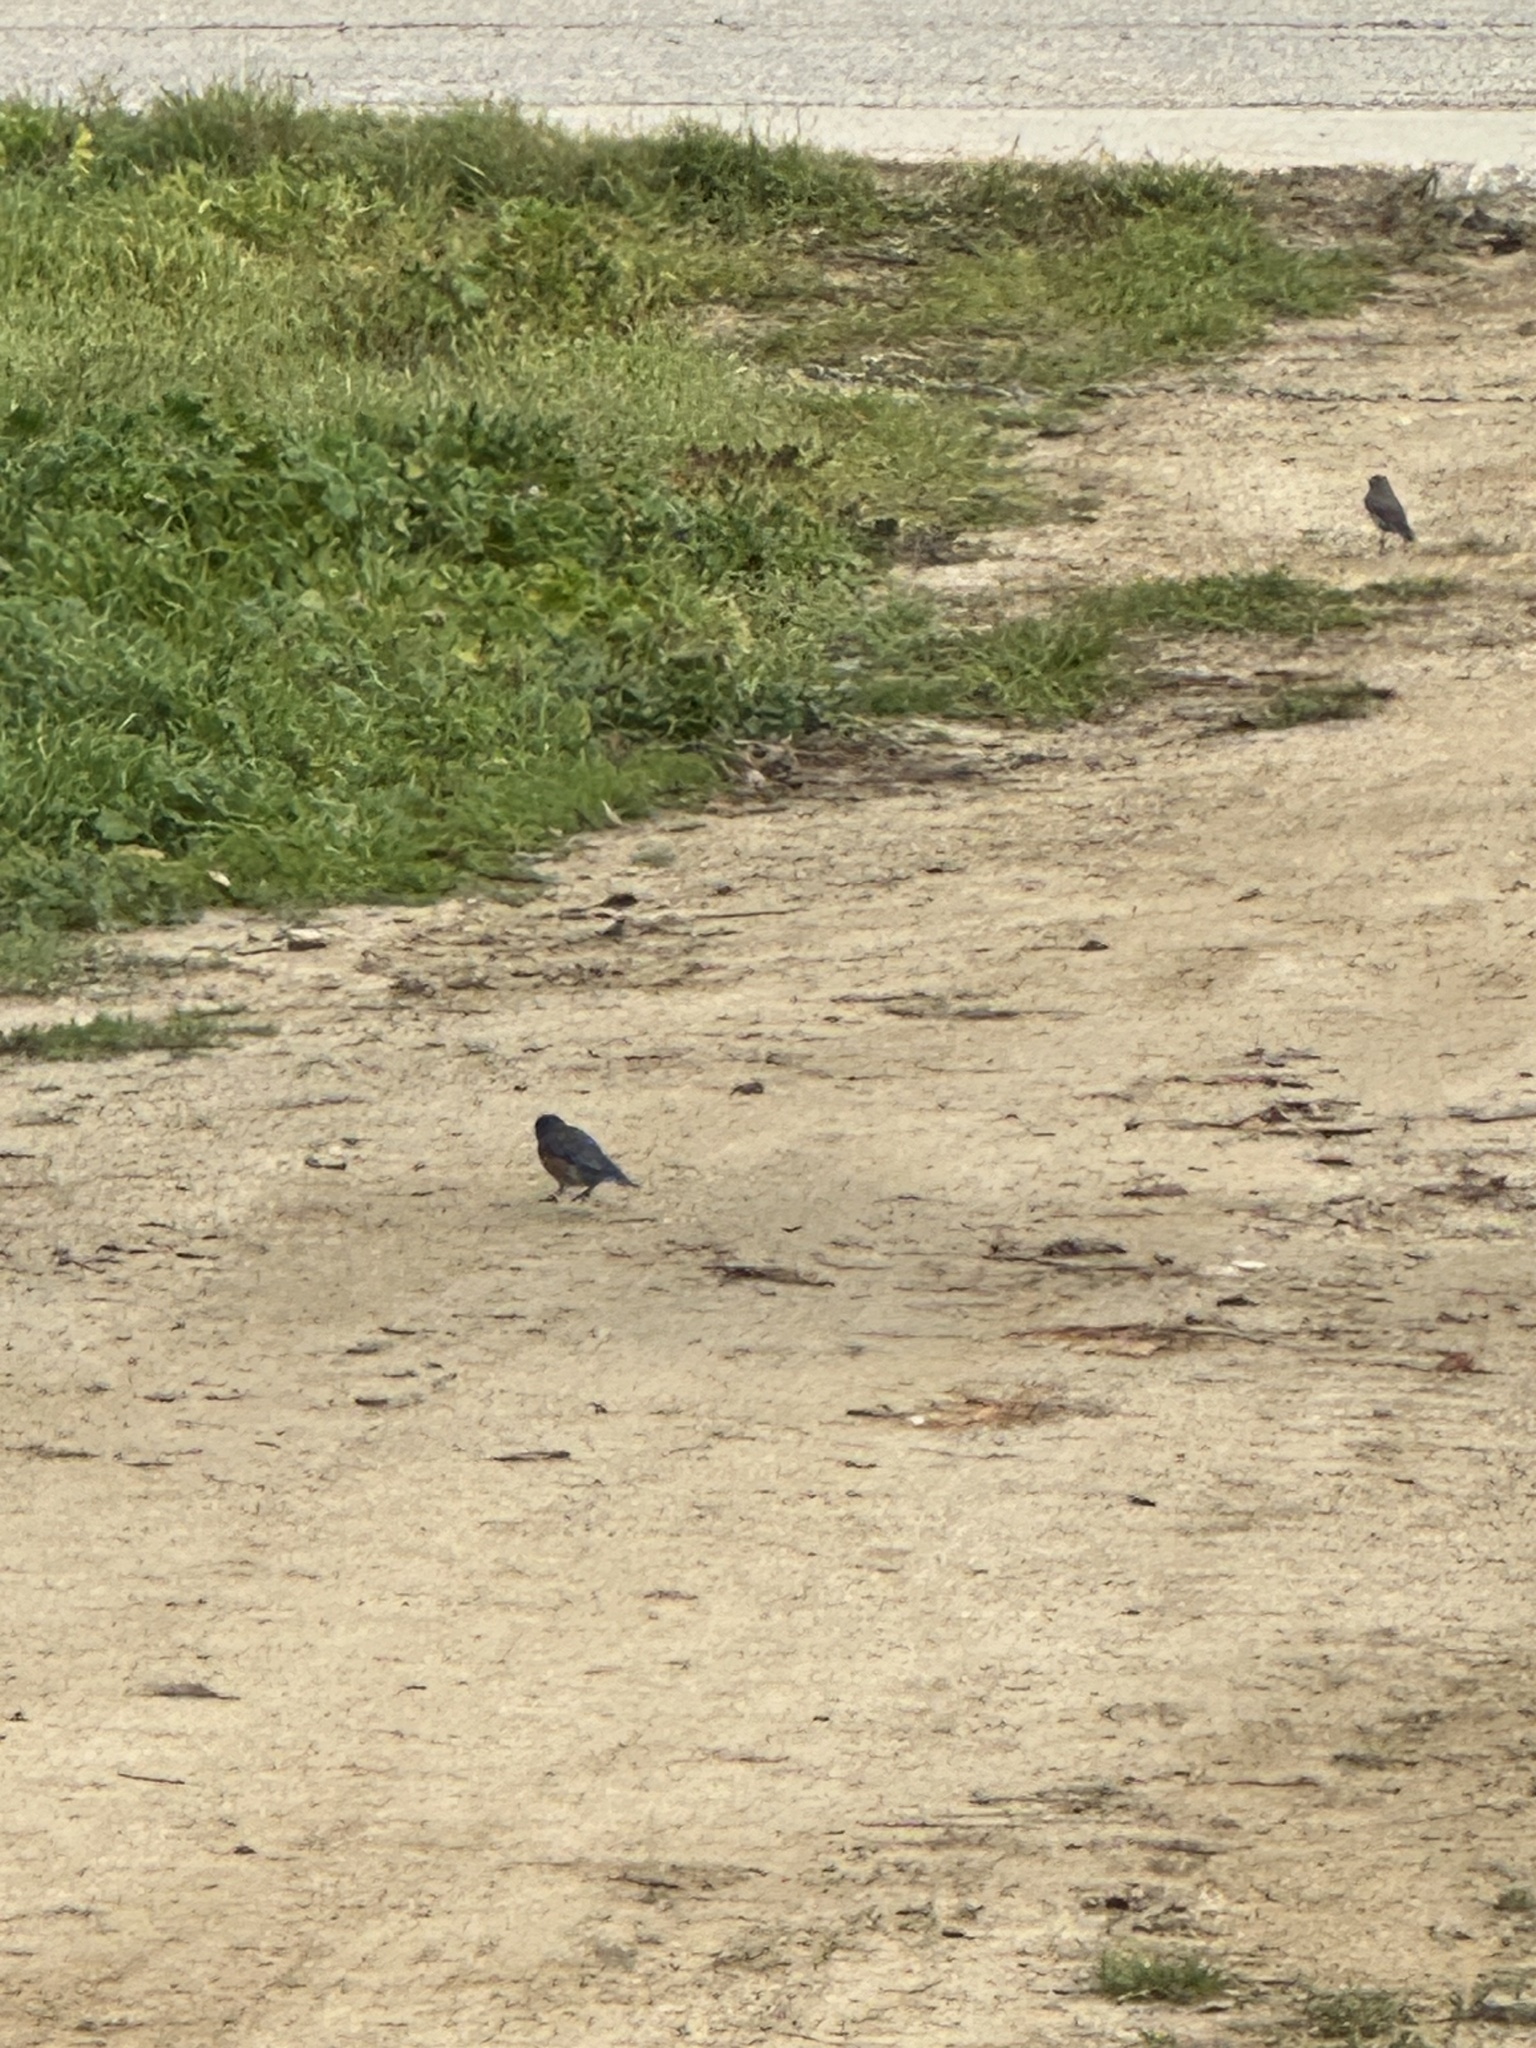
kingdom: Animalia
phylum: Chordata
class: Aves
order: Passeriformes
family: Turdidae
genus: Sialia
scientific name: Sialia mexicana
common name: Western bluebird
